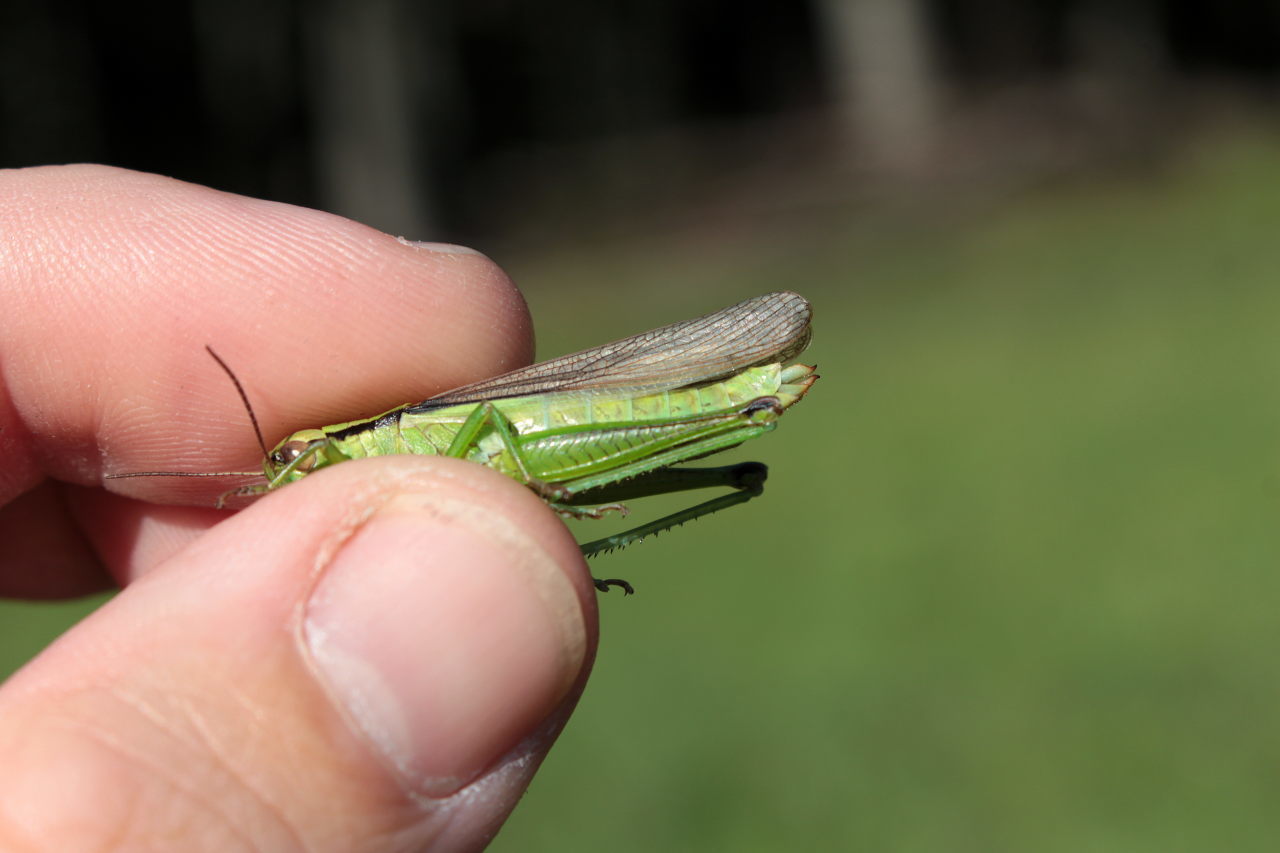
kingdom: Animalia
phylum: Arthropoda
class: Insecta
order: Orthoptera
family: Acrididae
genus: Mecostethus
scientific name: Mecostethus parapleurus
